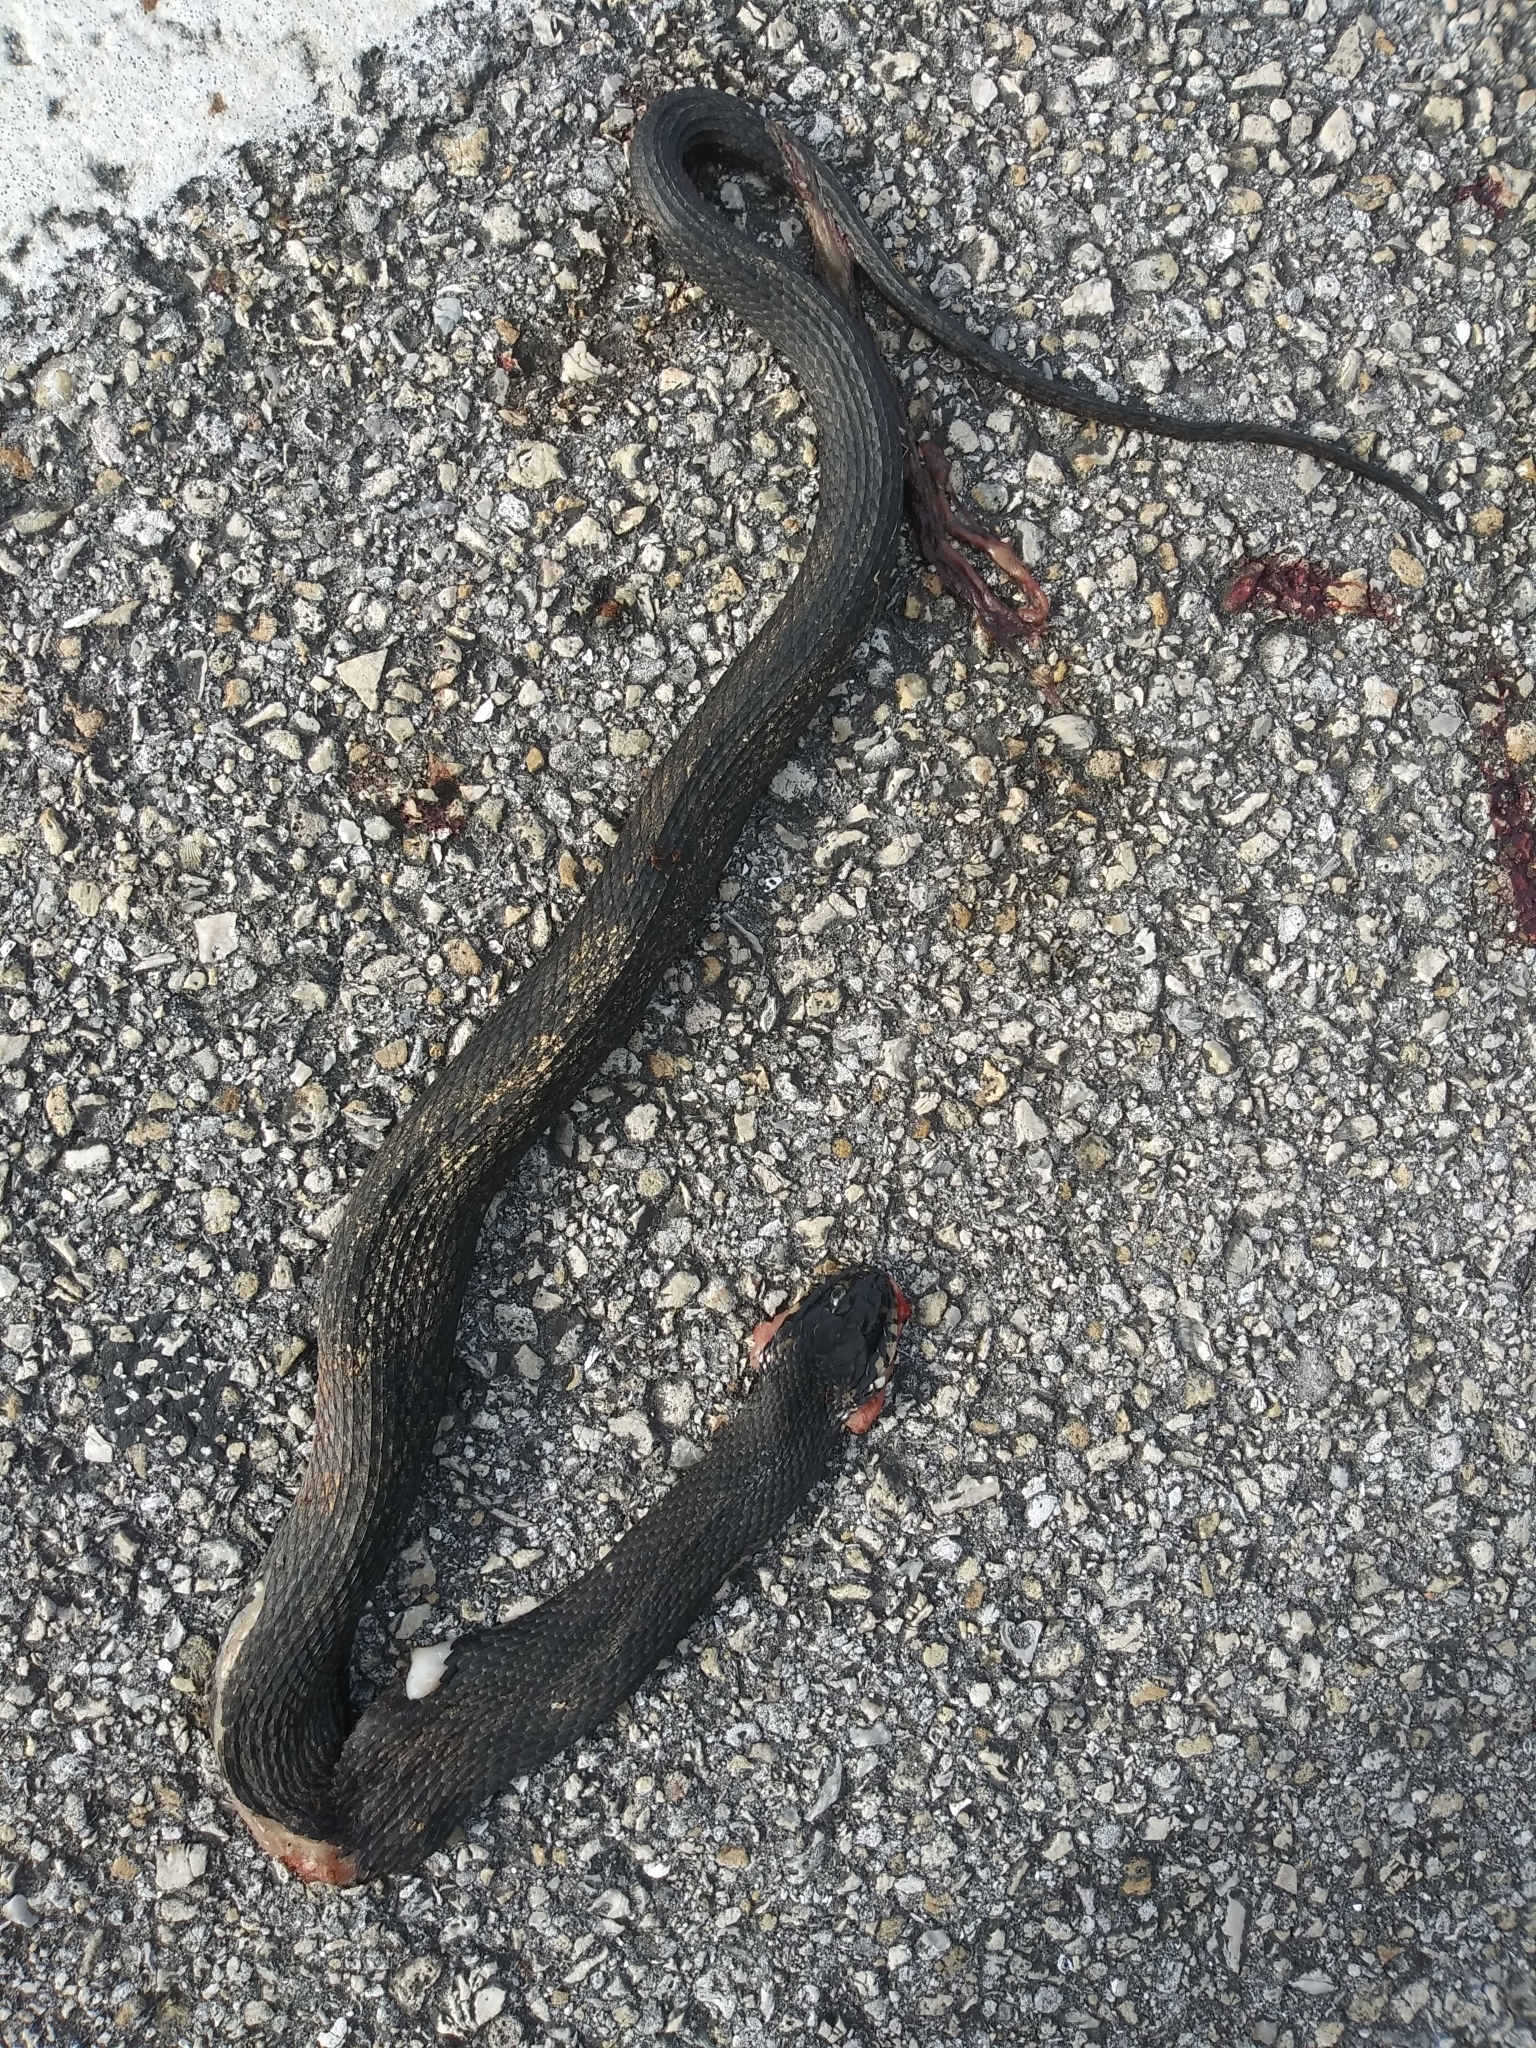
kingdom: Animalia
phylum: Chordata
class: Squamata
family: Colubridae
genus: Nerodia
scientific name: Nerodia fasciata
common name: Southern water snake
